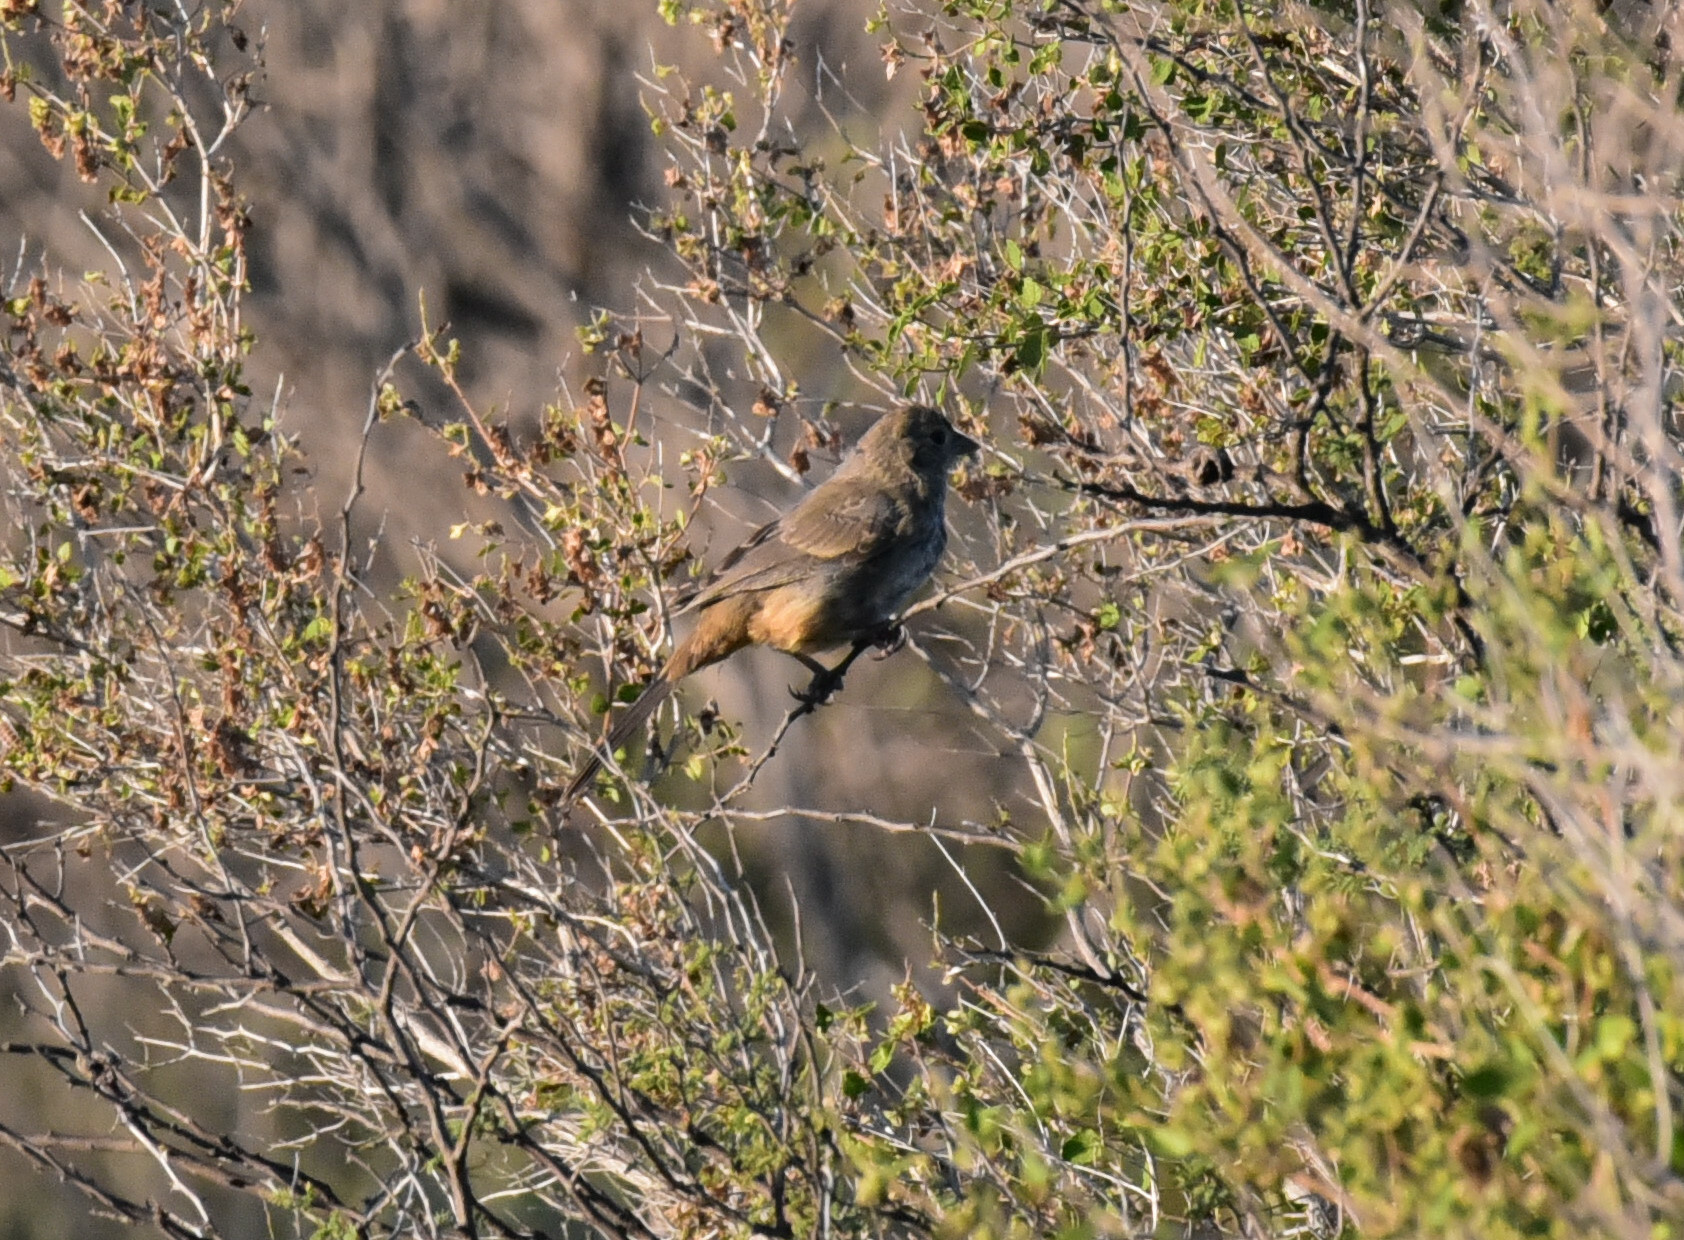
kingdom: Animalia
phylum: Chordata
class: Aves
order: Passeriformes
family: Passerellidae
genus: Melozone
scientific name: Melozone fusca
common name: Canyon towhee
